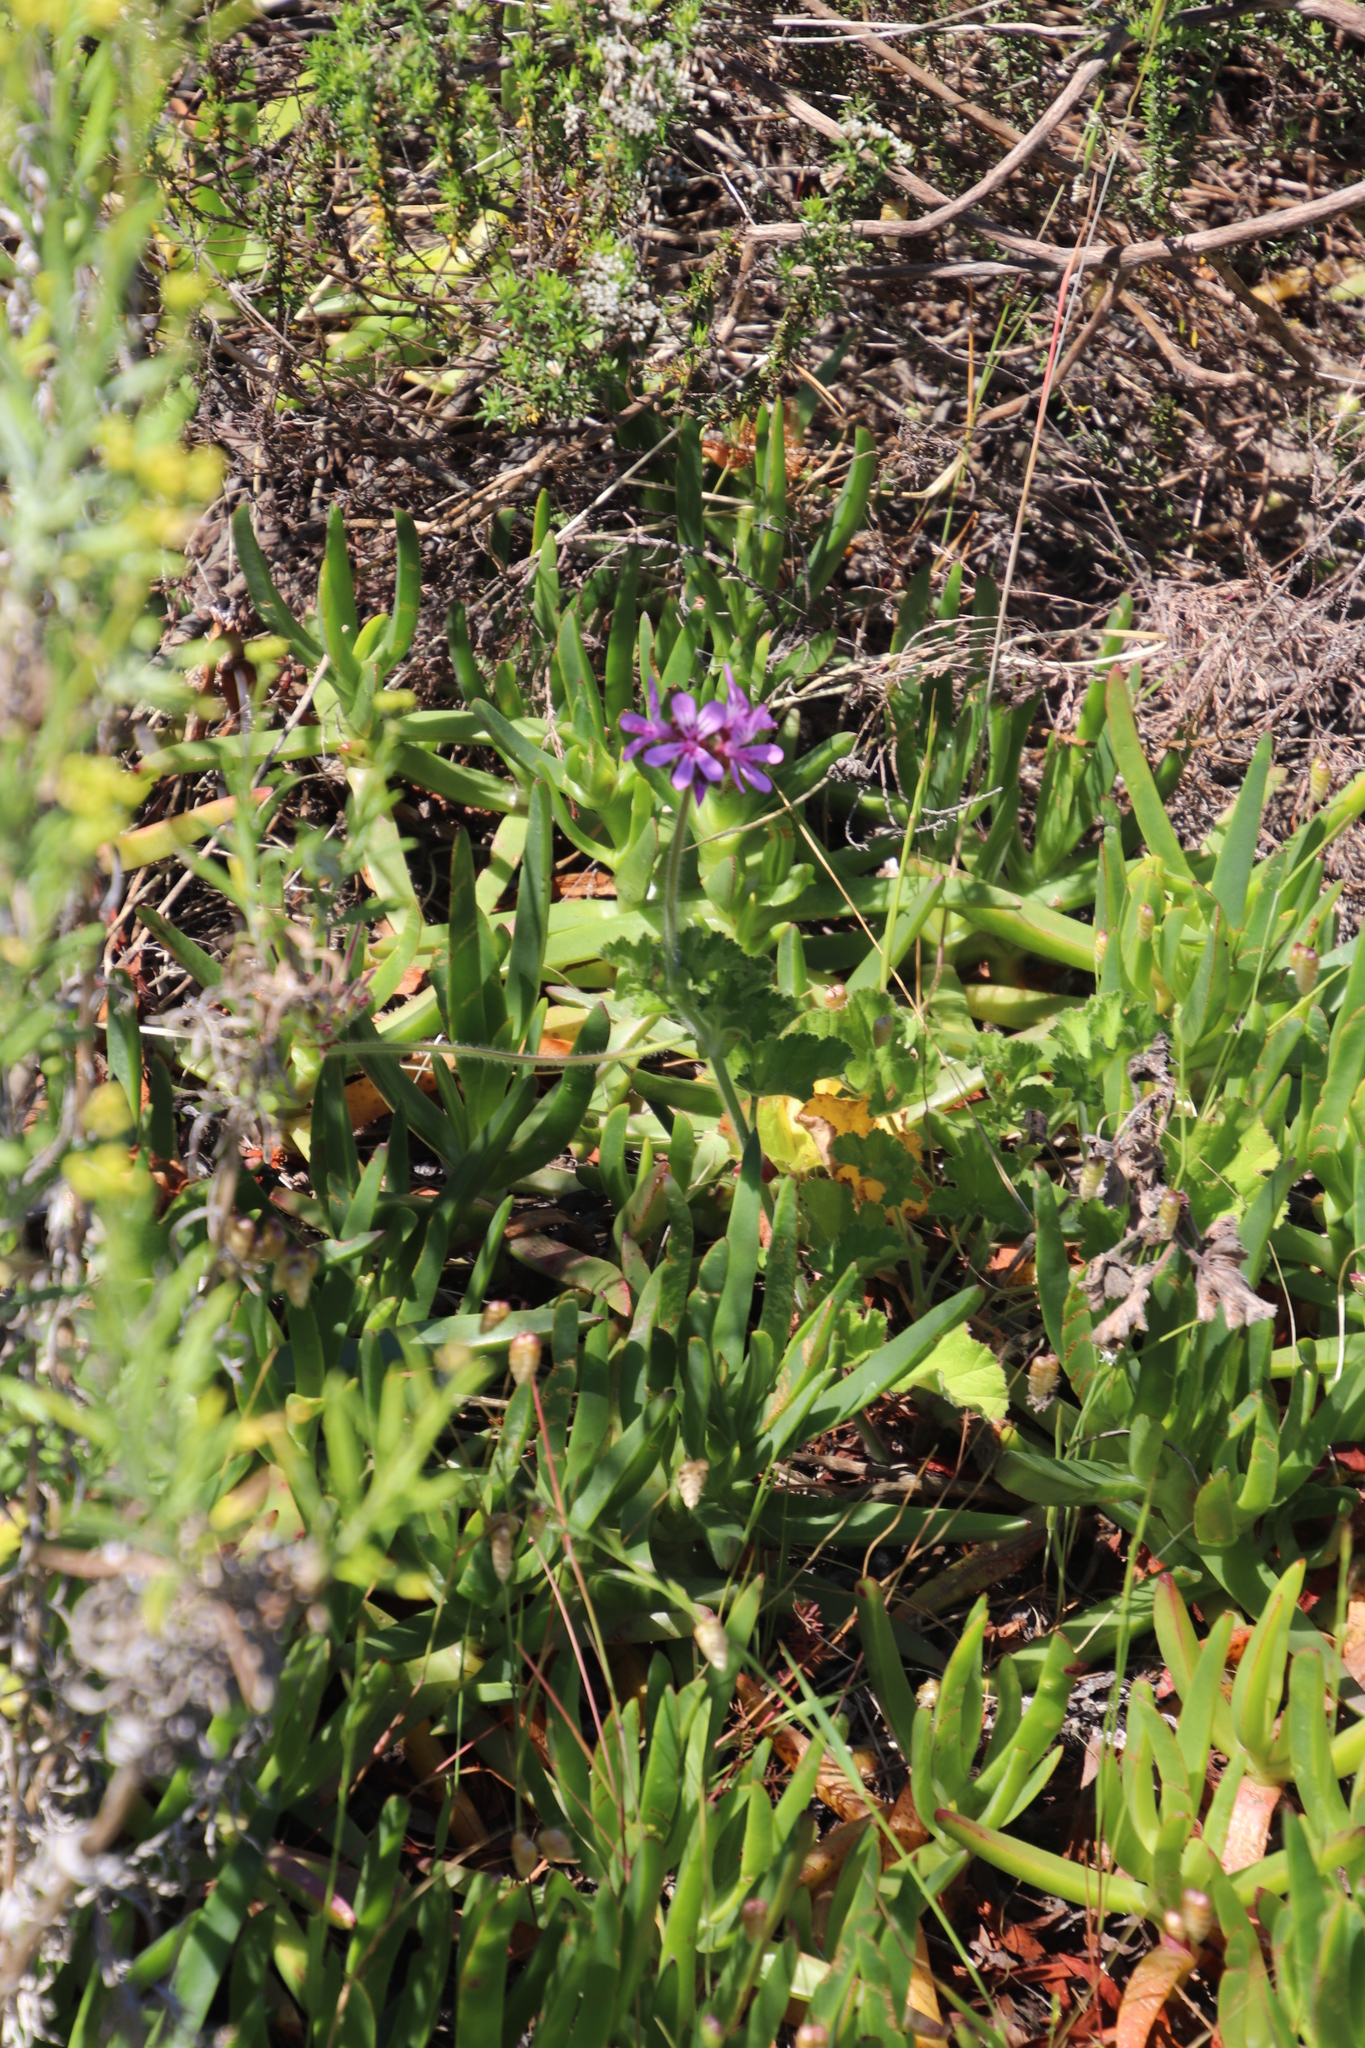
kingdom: Plantae
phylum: Tracheophyta
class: Magnoliopsida
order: Geraniales
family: Geraniaceae
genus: Pelargonium
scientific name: Pelargonium capitatum
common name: Rose scented geranium
